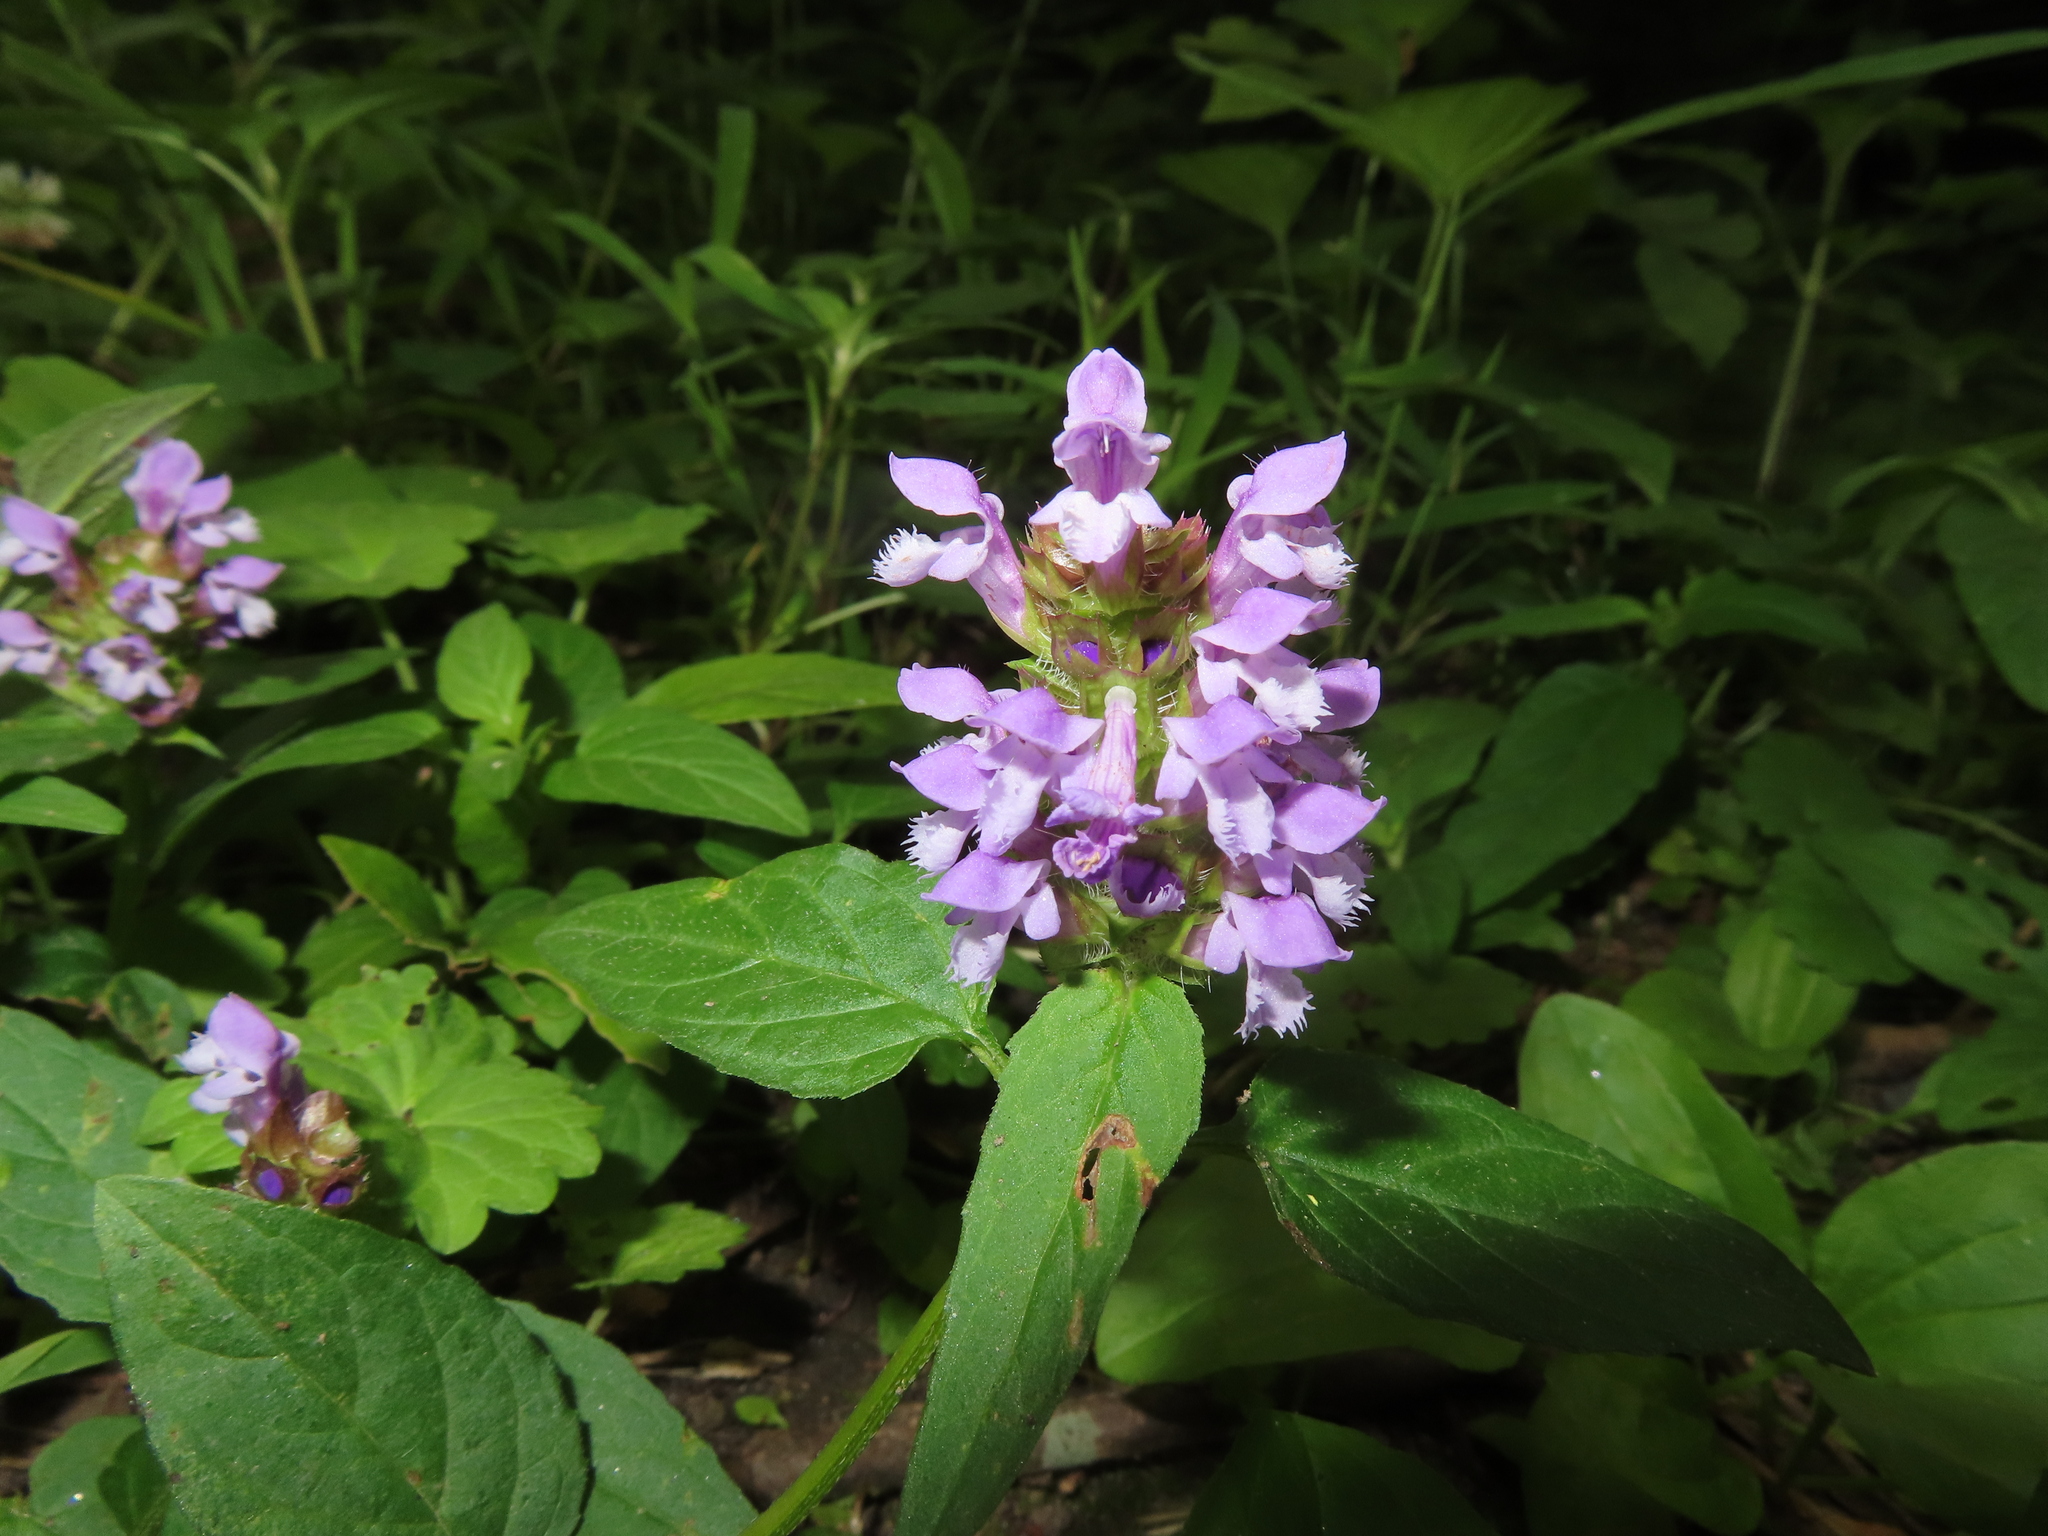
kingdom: Plantae
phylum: Tracheophyta
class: Magnoliopsida
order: Lamiales
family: Lamiaceae
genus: Prunella
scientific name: Prunella vulgaris
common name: Heal-all
